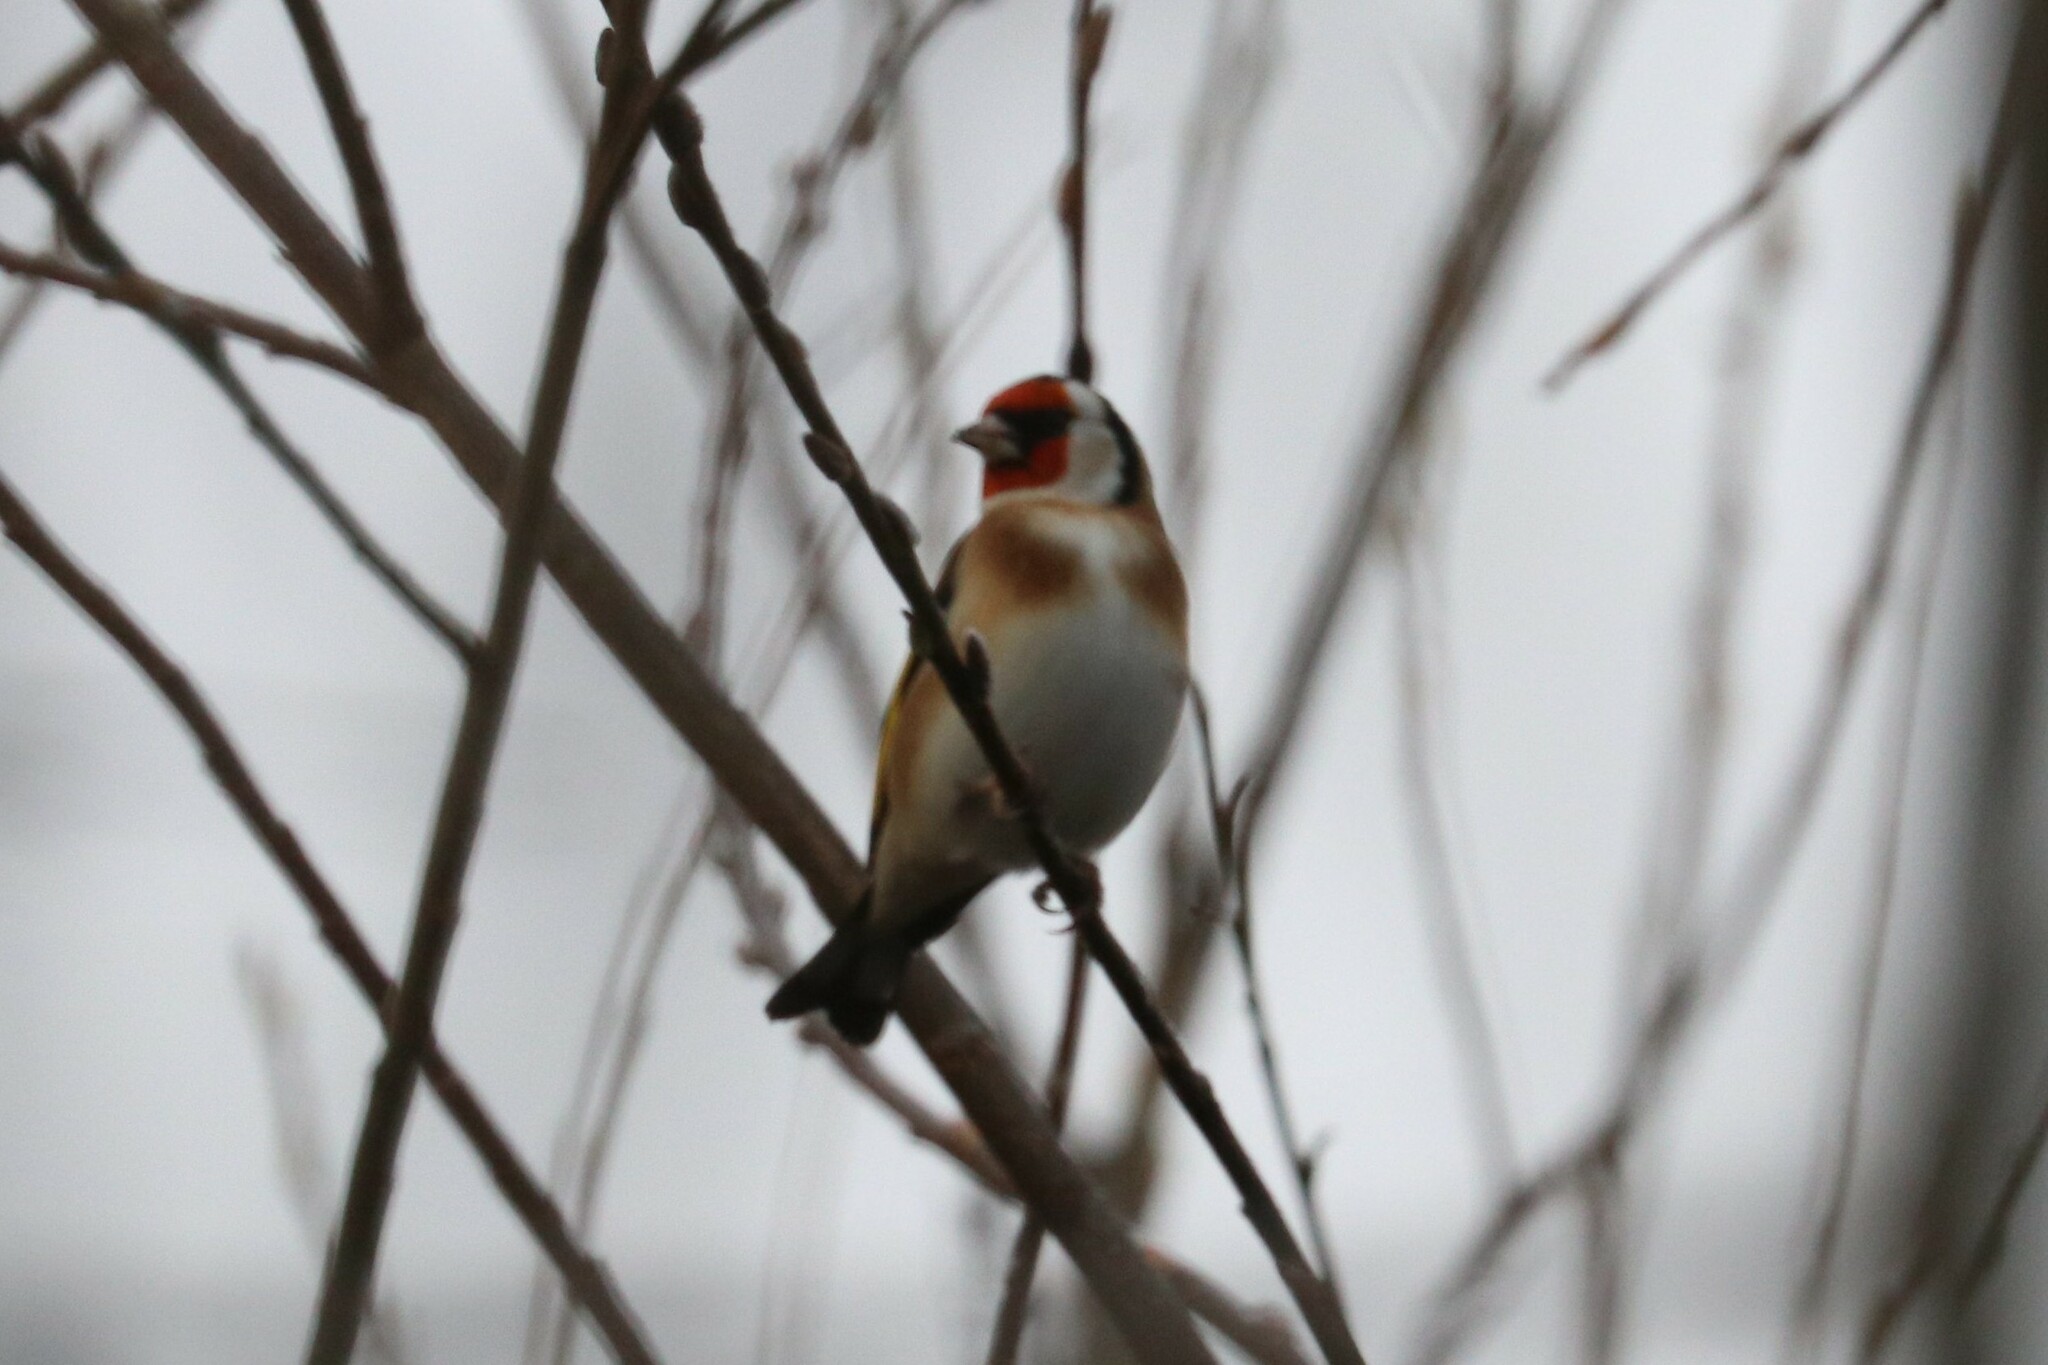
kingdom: Animalia
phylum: Chordata
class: Aves
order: Passeriformes
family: Fringillidae
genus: Carduelis
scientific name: Carduelis carduelis
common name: European goldfinch
